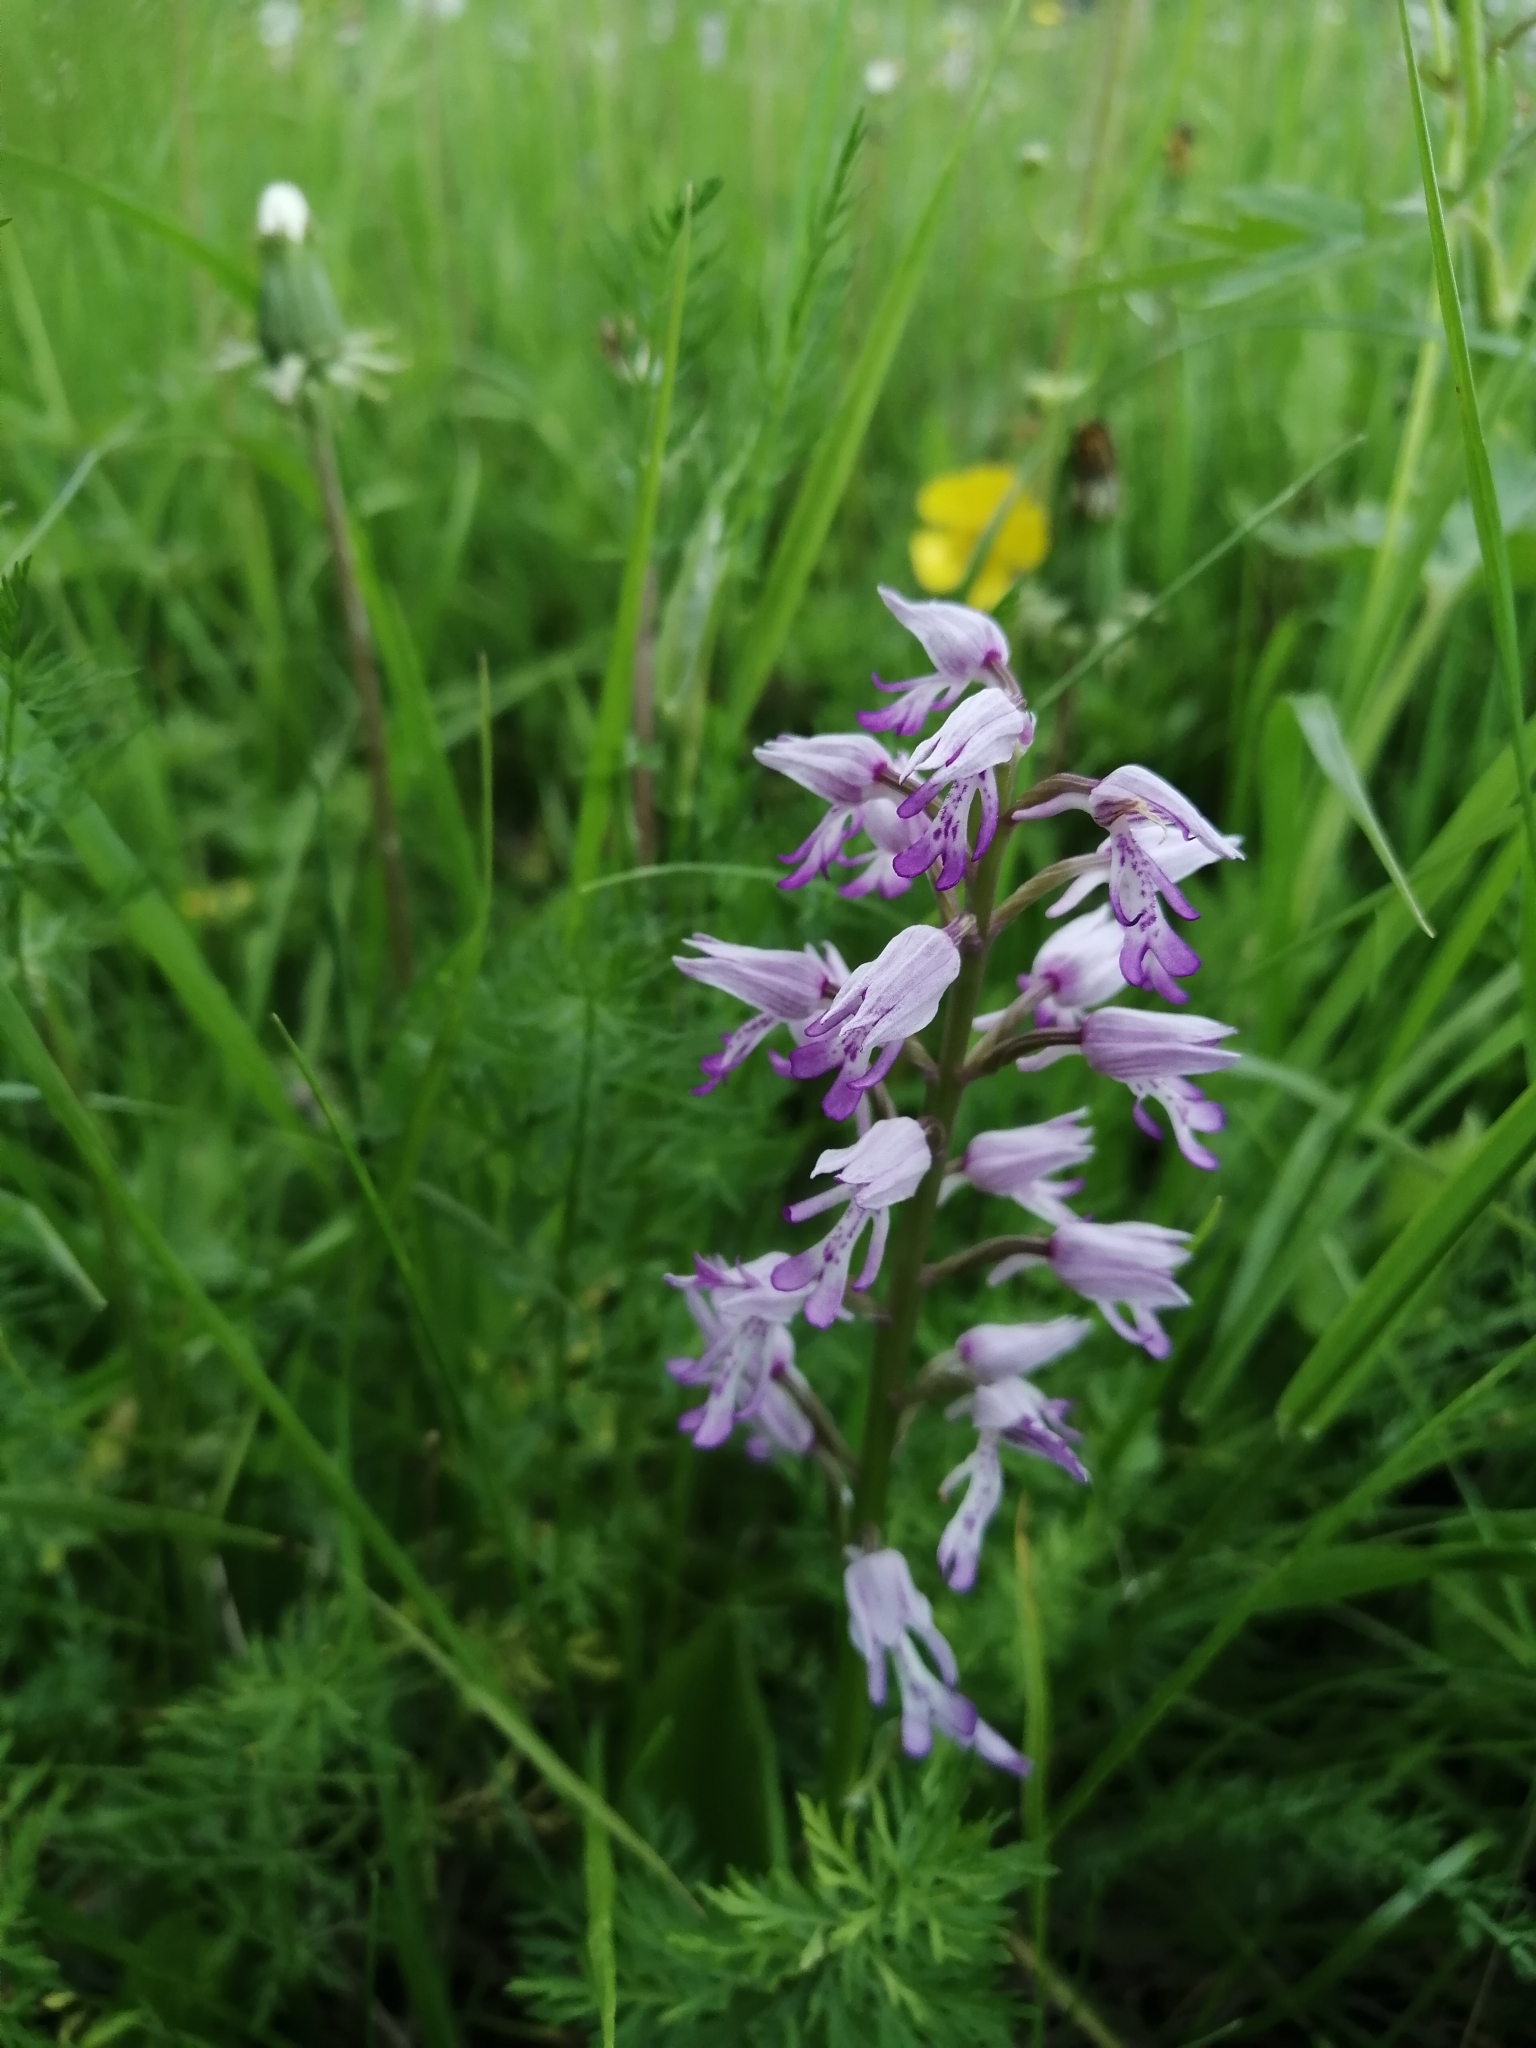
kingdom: Plantae
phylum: Tracheophyta
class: Liliopsida
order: Asparagales
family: Orchidaceae
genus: Orchis
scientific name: Orchis militaris
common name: Military orchid
